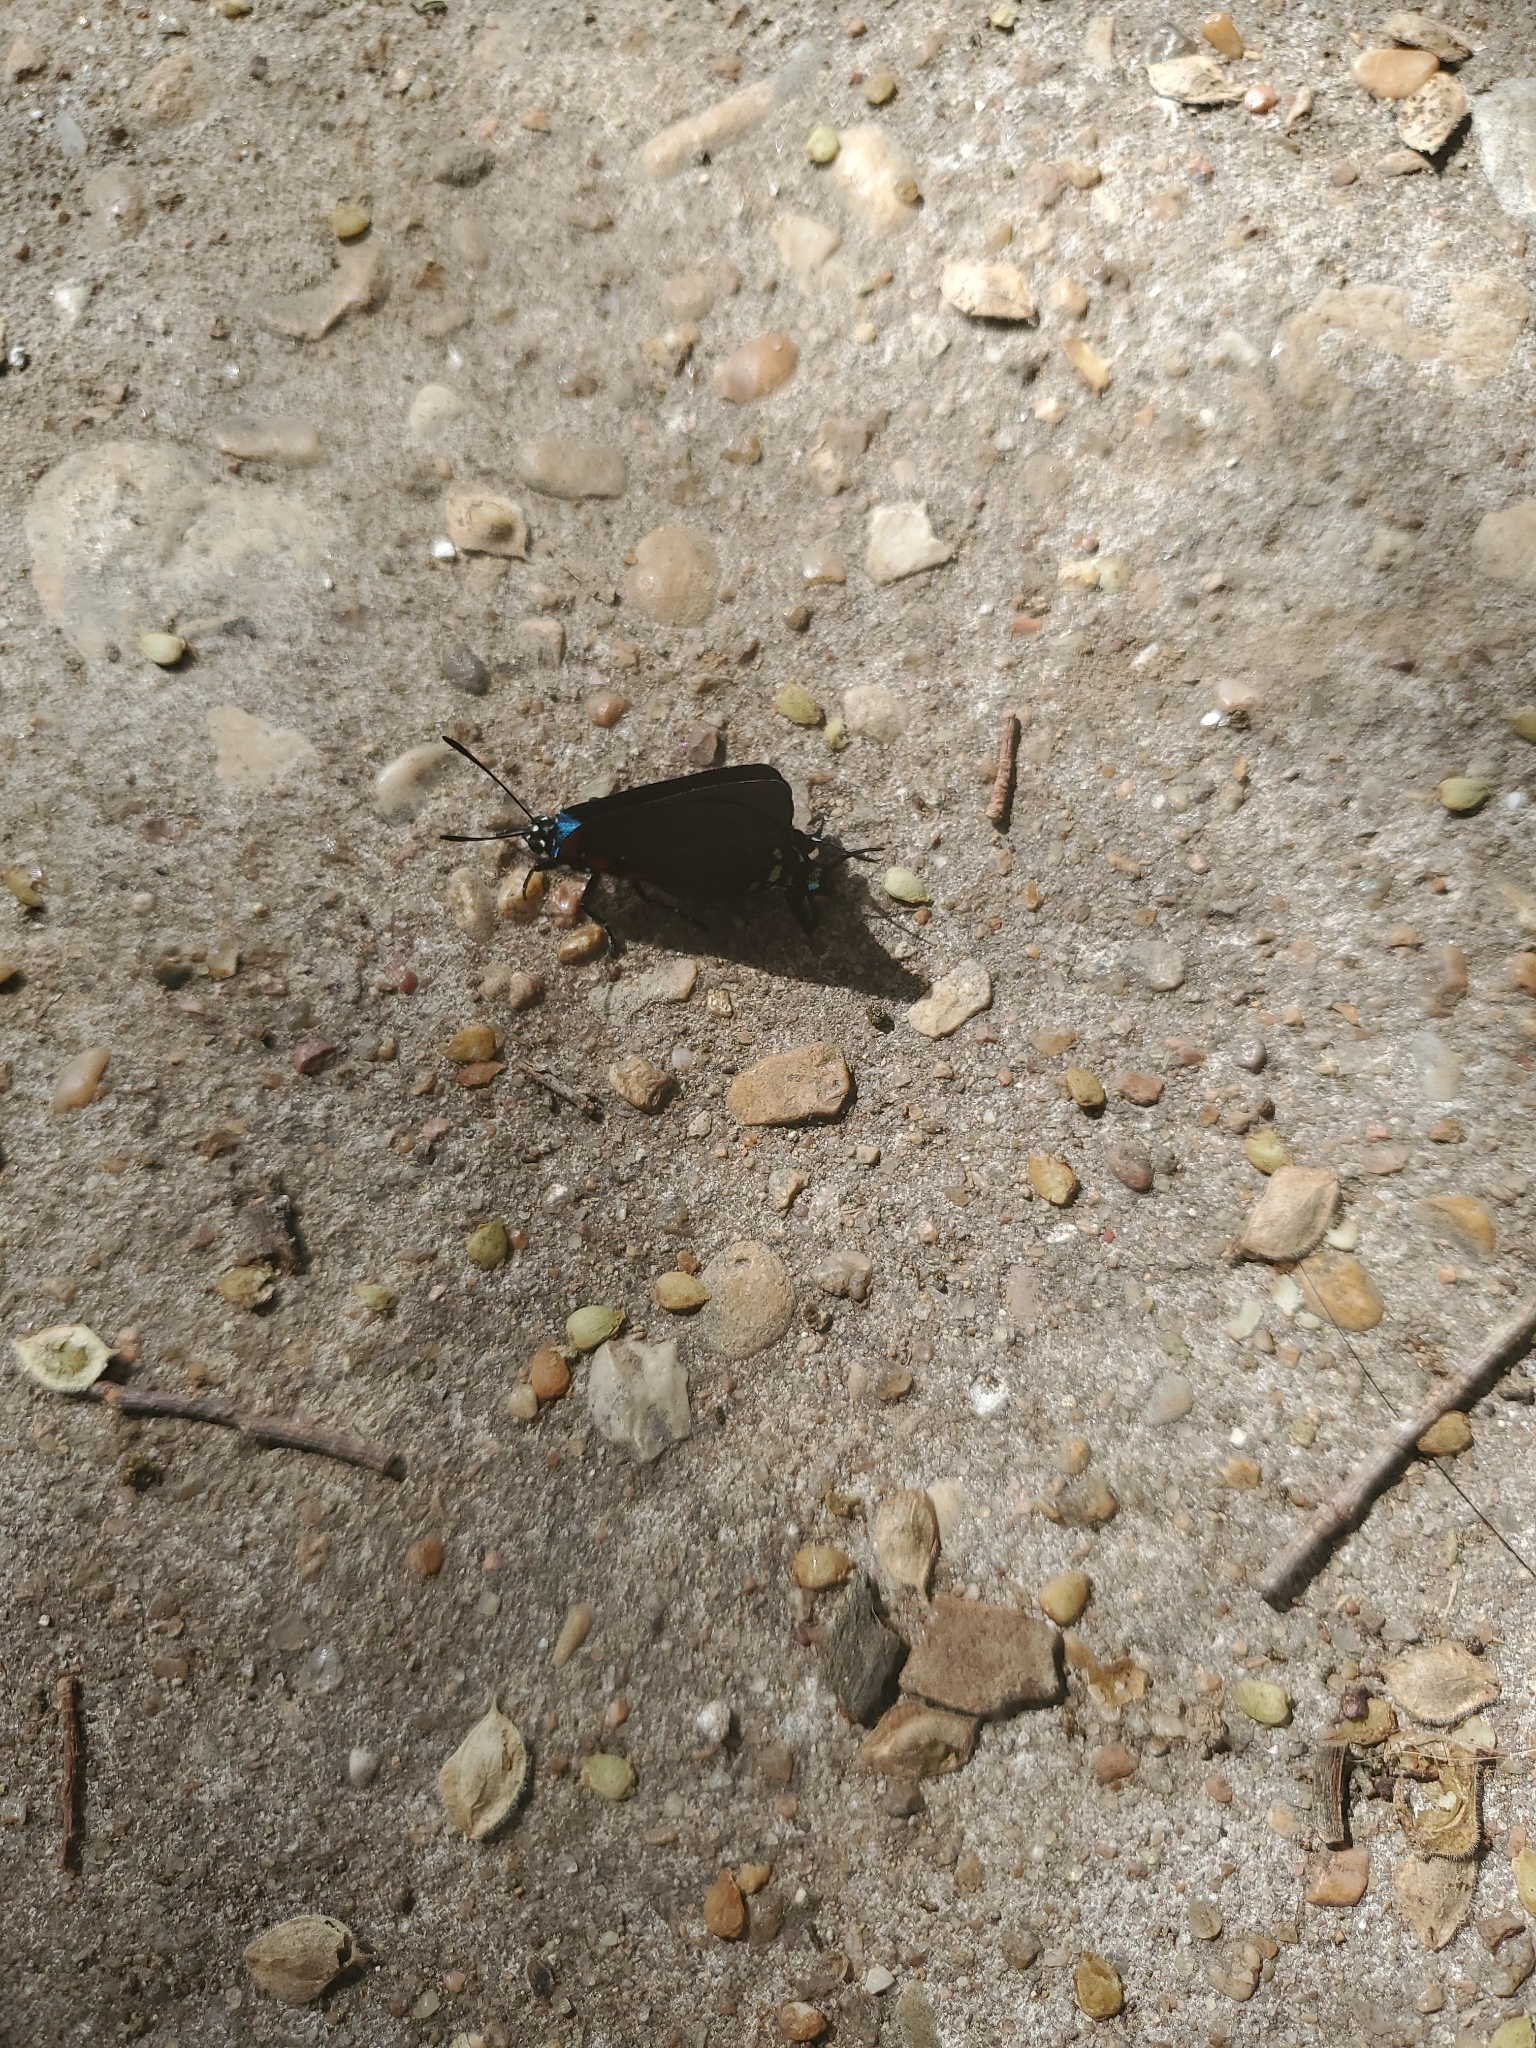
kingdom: Animalia
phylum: Arthropoda
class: Insecta
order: Lepidoptera
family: Lycaenidae
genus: Atlides
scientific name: Atlides halesus
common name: Great purple hairstreak
